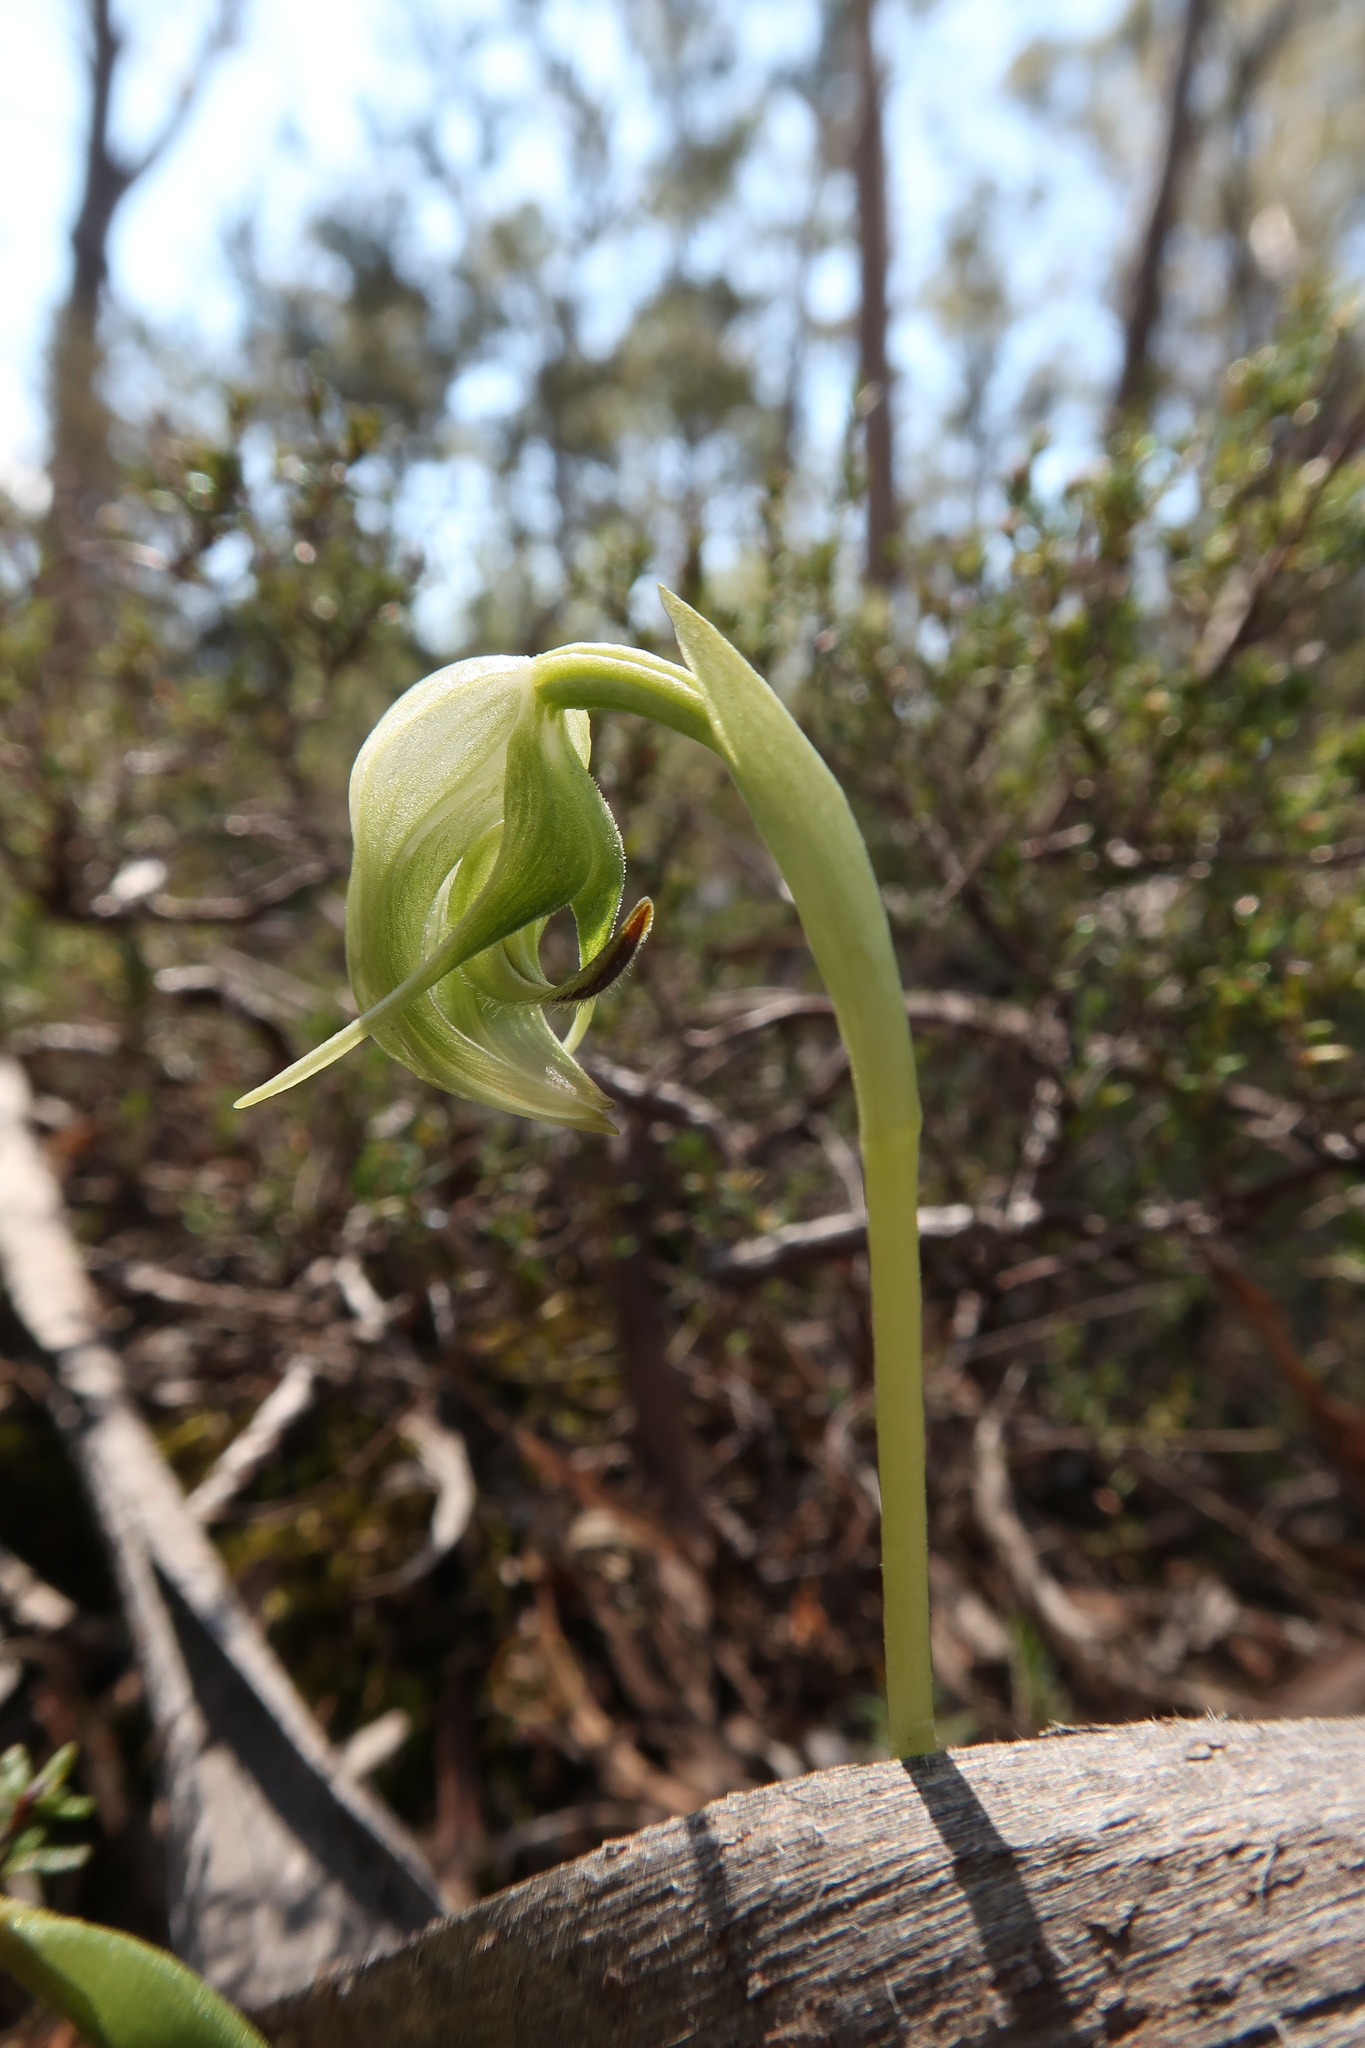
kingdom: Plantae
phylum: Tracheophyta
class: Liliopsida
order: Asparagales
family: Orchidaceae
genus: Pterostylis
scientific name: Pterostylis nutans
